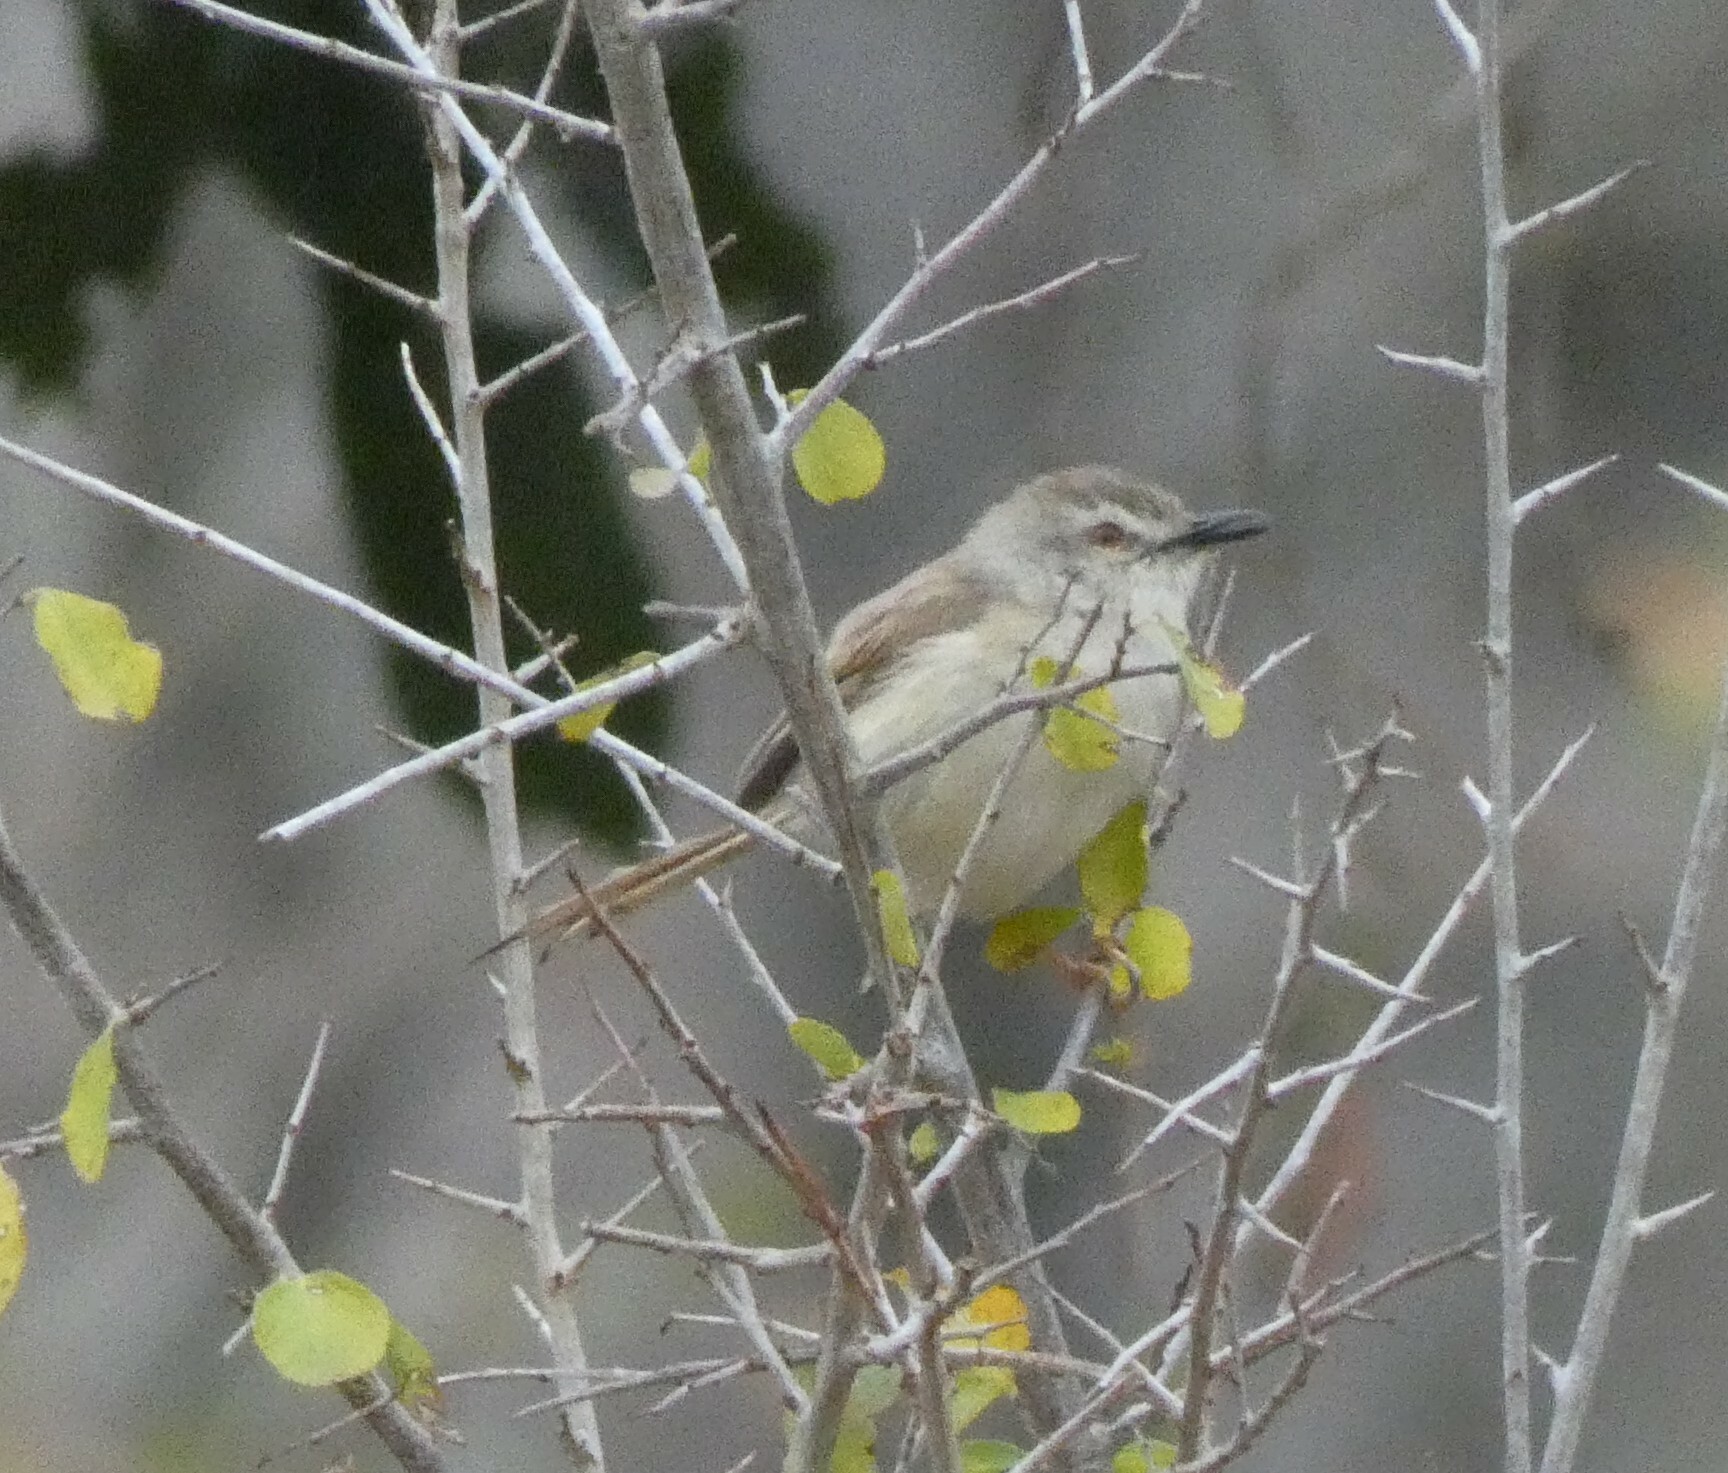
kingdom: Animalia
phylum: Chordata
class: Aves
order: Passeriformes
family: Cisticolidae
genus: Prinia
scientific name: Prinia subflava
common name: Tawny-flanked prinia
